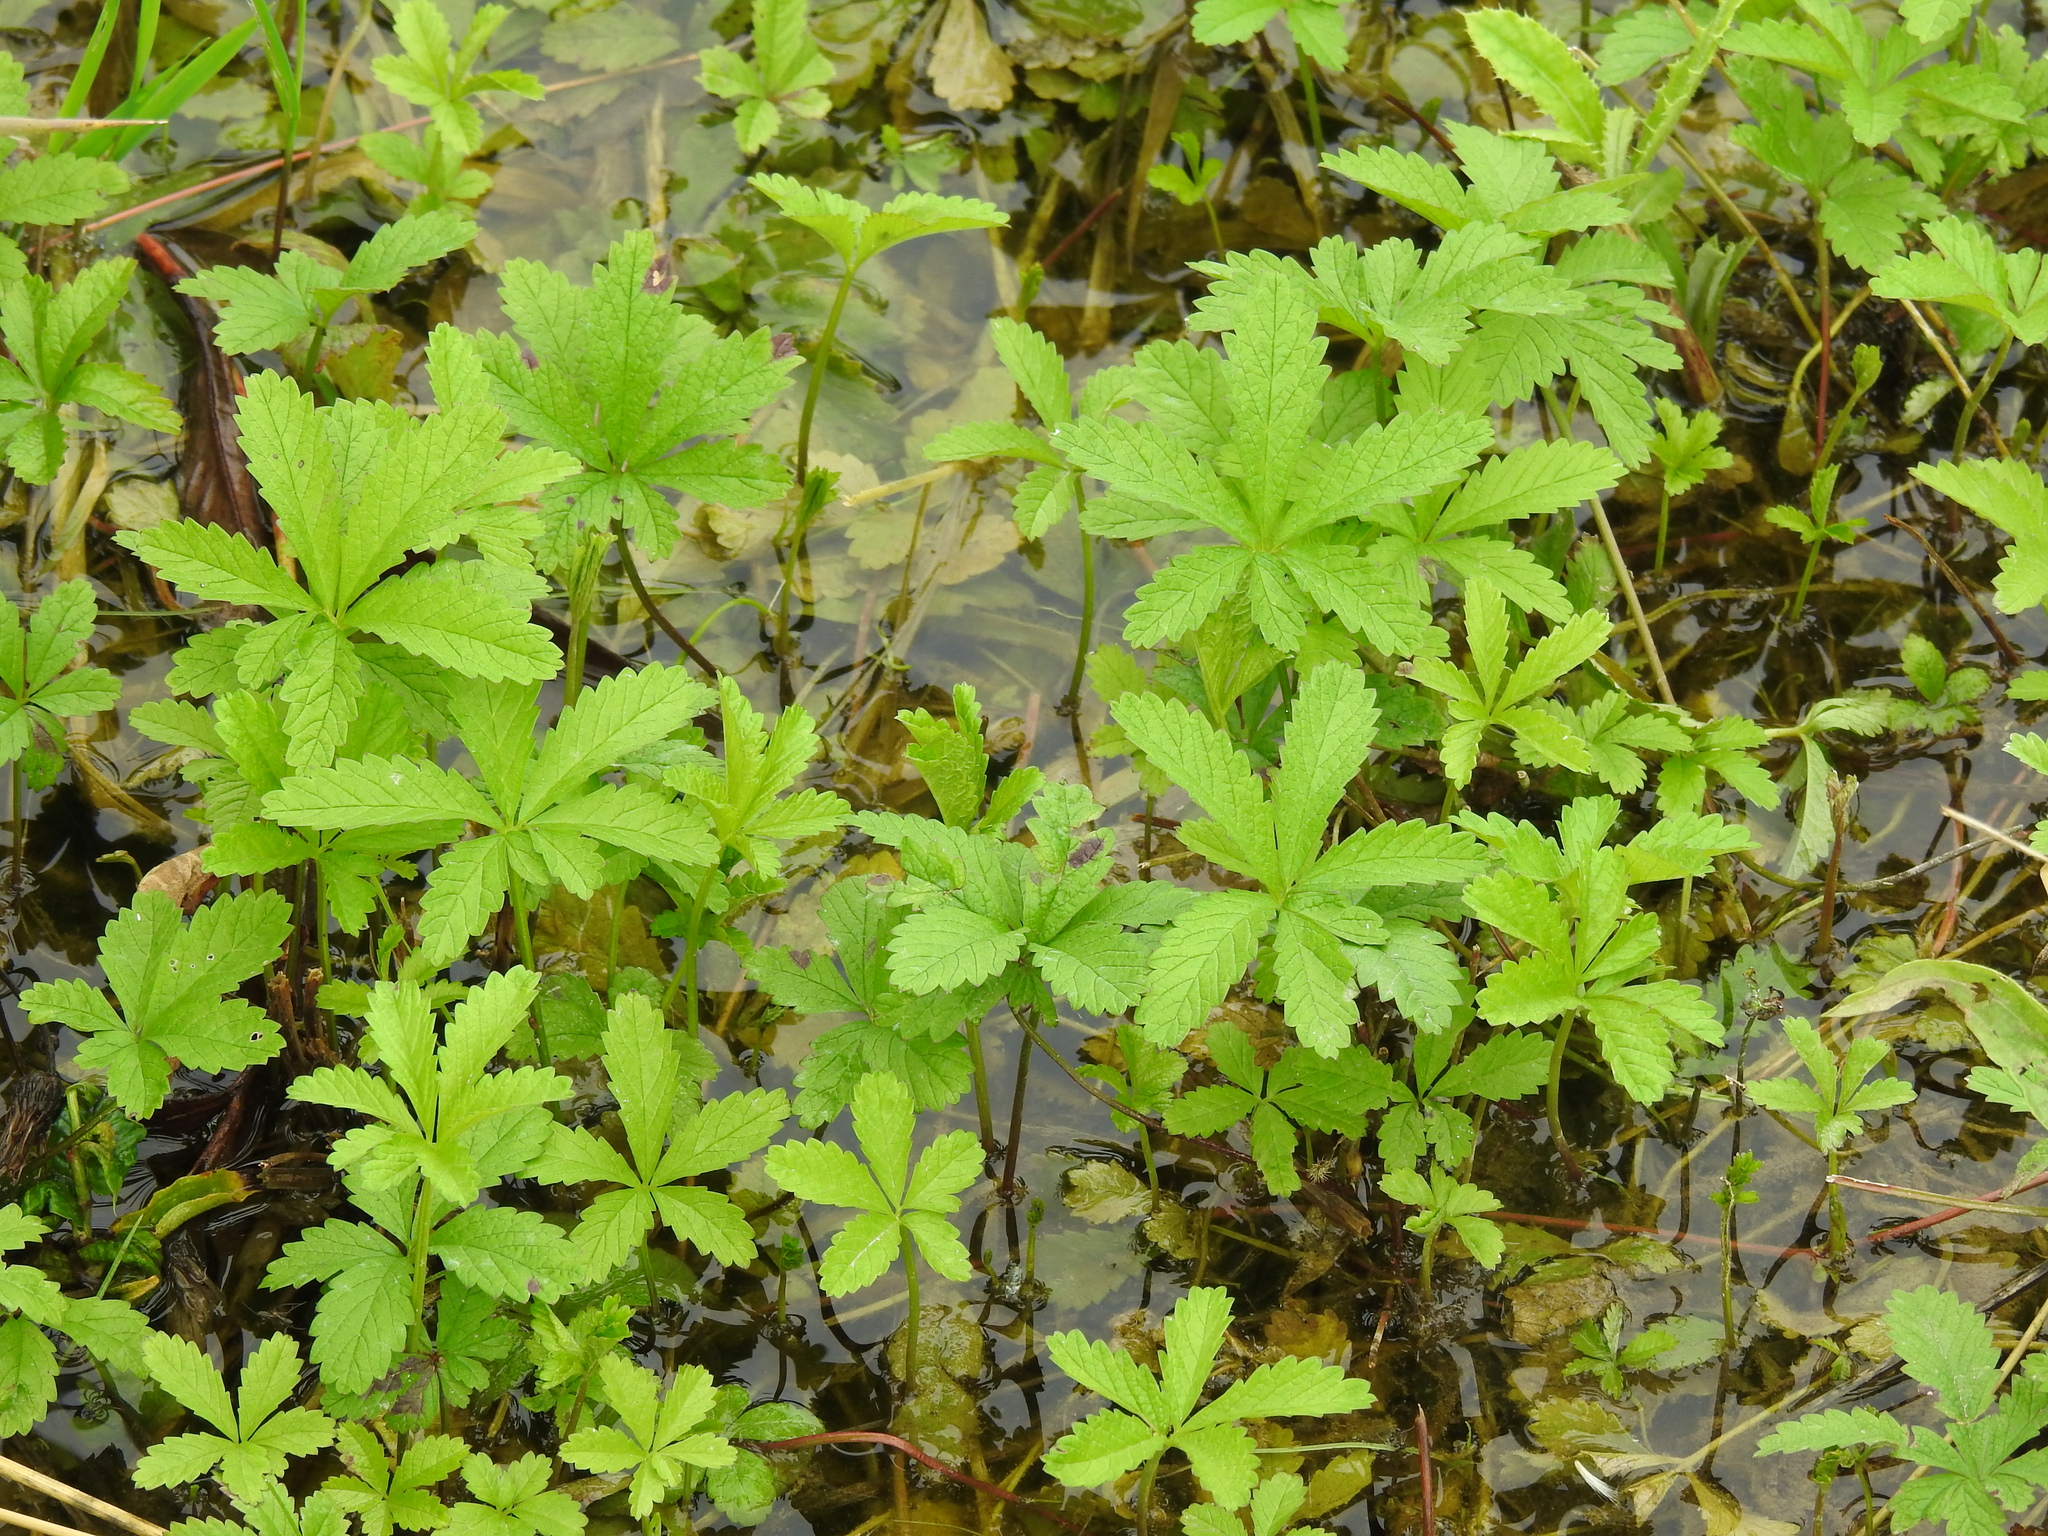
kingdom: Plantae
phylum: Tracheophyta
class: Magnoliopsida
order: Rosales
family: Rosaceae
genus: Potentilla
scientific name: Potentilla reptans
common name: Creeping cinquefoil
